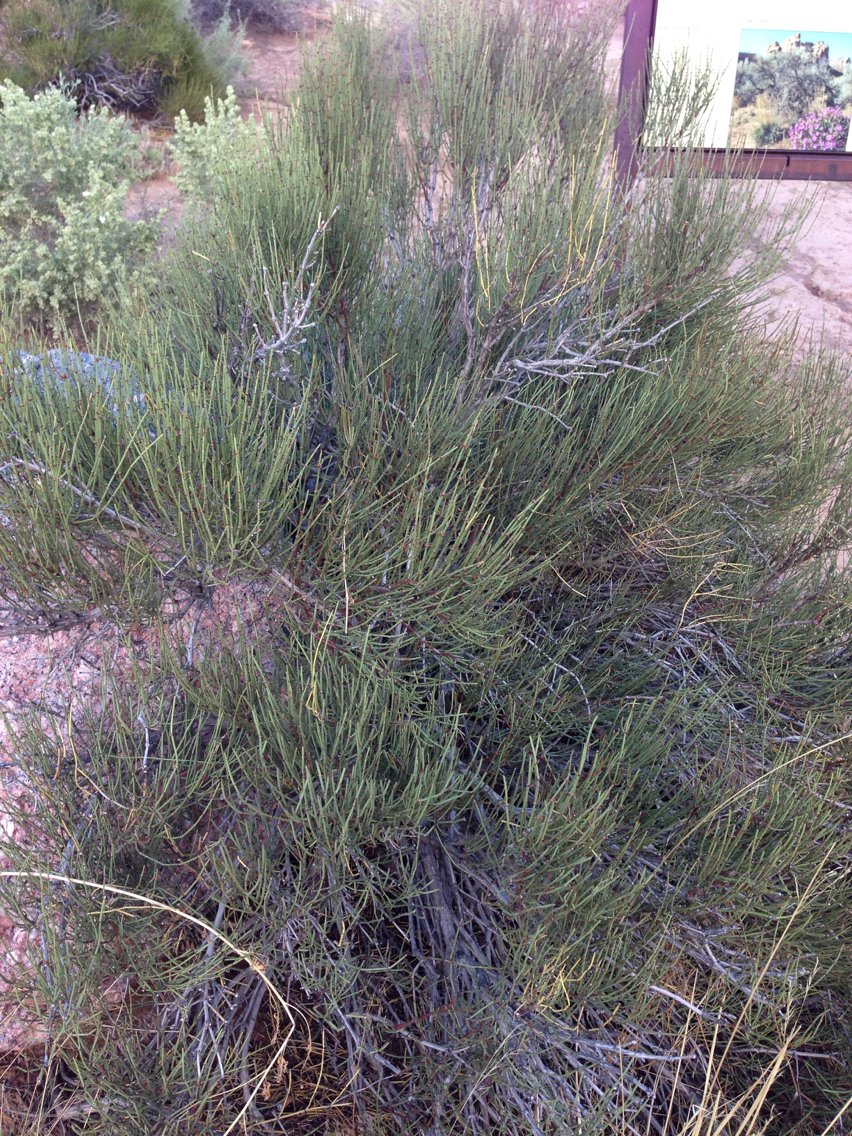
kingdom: Plantae
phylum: Tracheophyta
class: Gnetopsida
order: Ephedrales
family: Ephedraceae
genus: Ephedra
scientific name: Ephedra viridis
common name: Green ephedra
